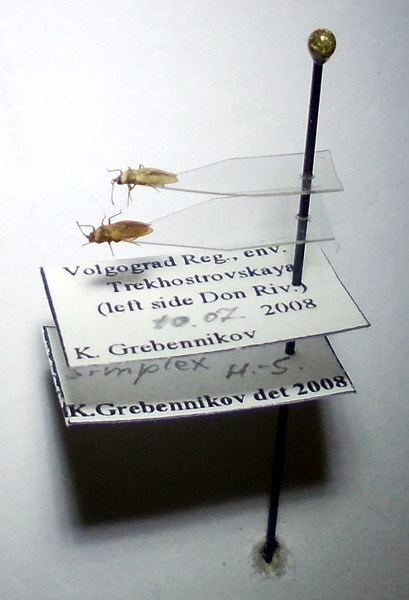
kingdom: Animalia
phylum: Arthropoda
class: Insecta
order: Hemiptera
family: Tingidae
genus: Onchochila
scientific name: Onchochila simplex
